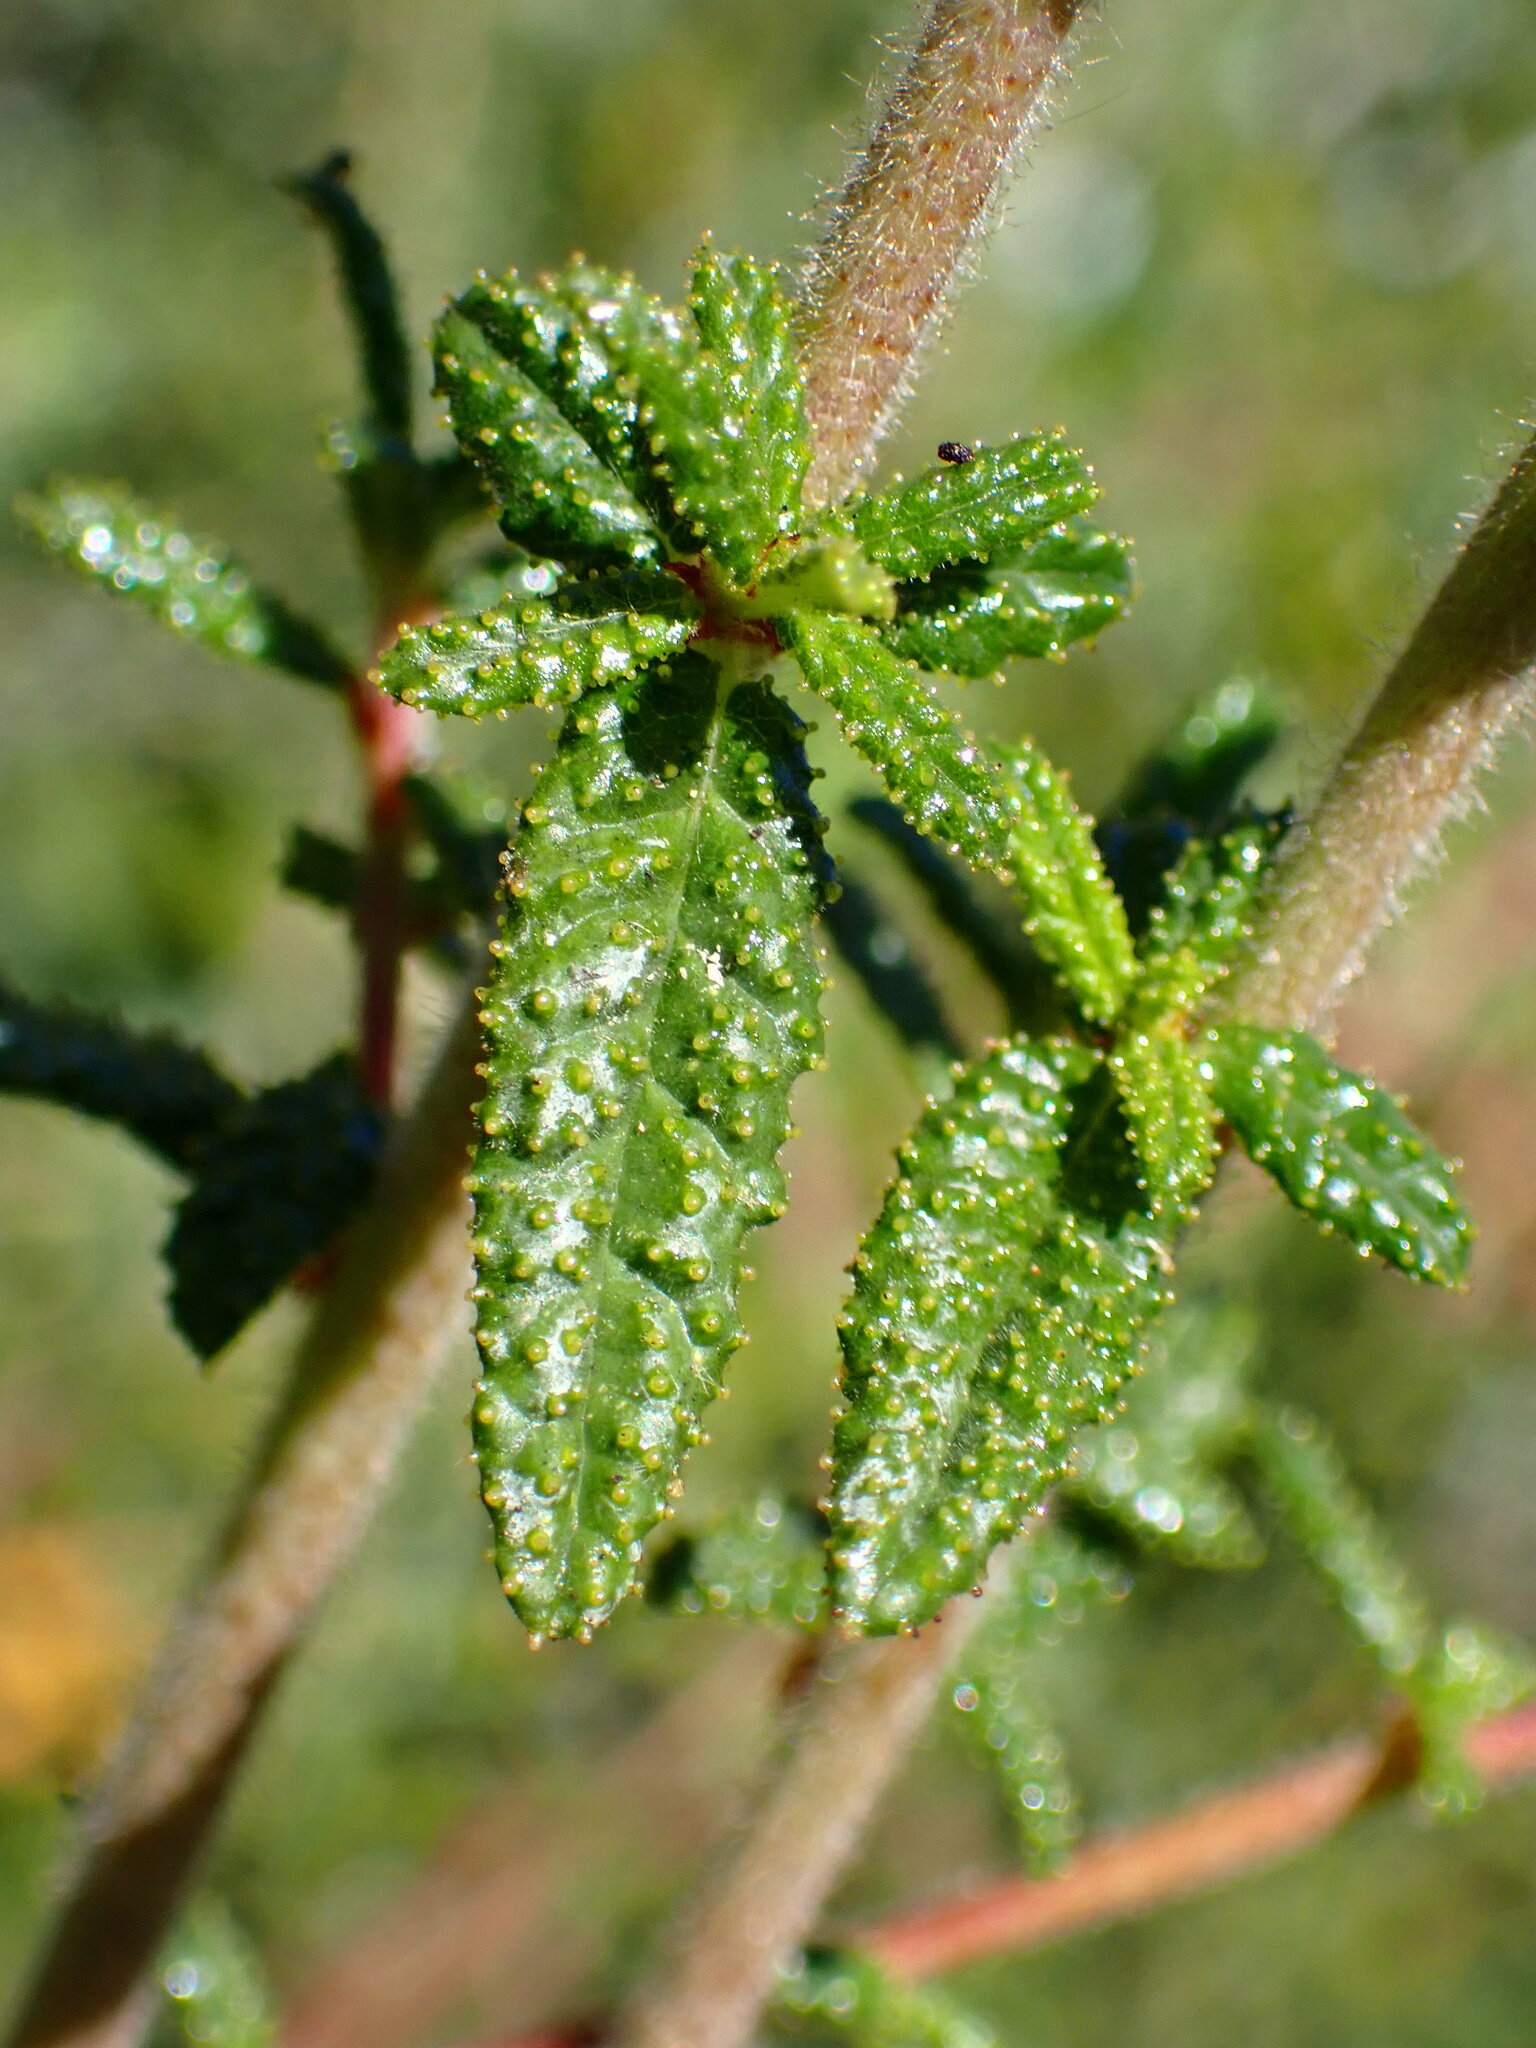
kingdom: Plantae
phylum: Tracheophyta
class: Magnoliopsida
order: Rosales
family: Rhamnaceae
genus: Ceanothus
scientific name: Ceanothus papillosus
